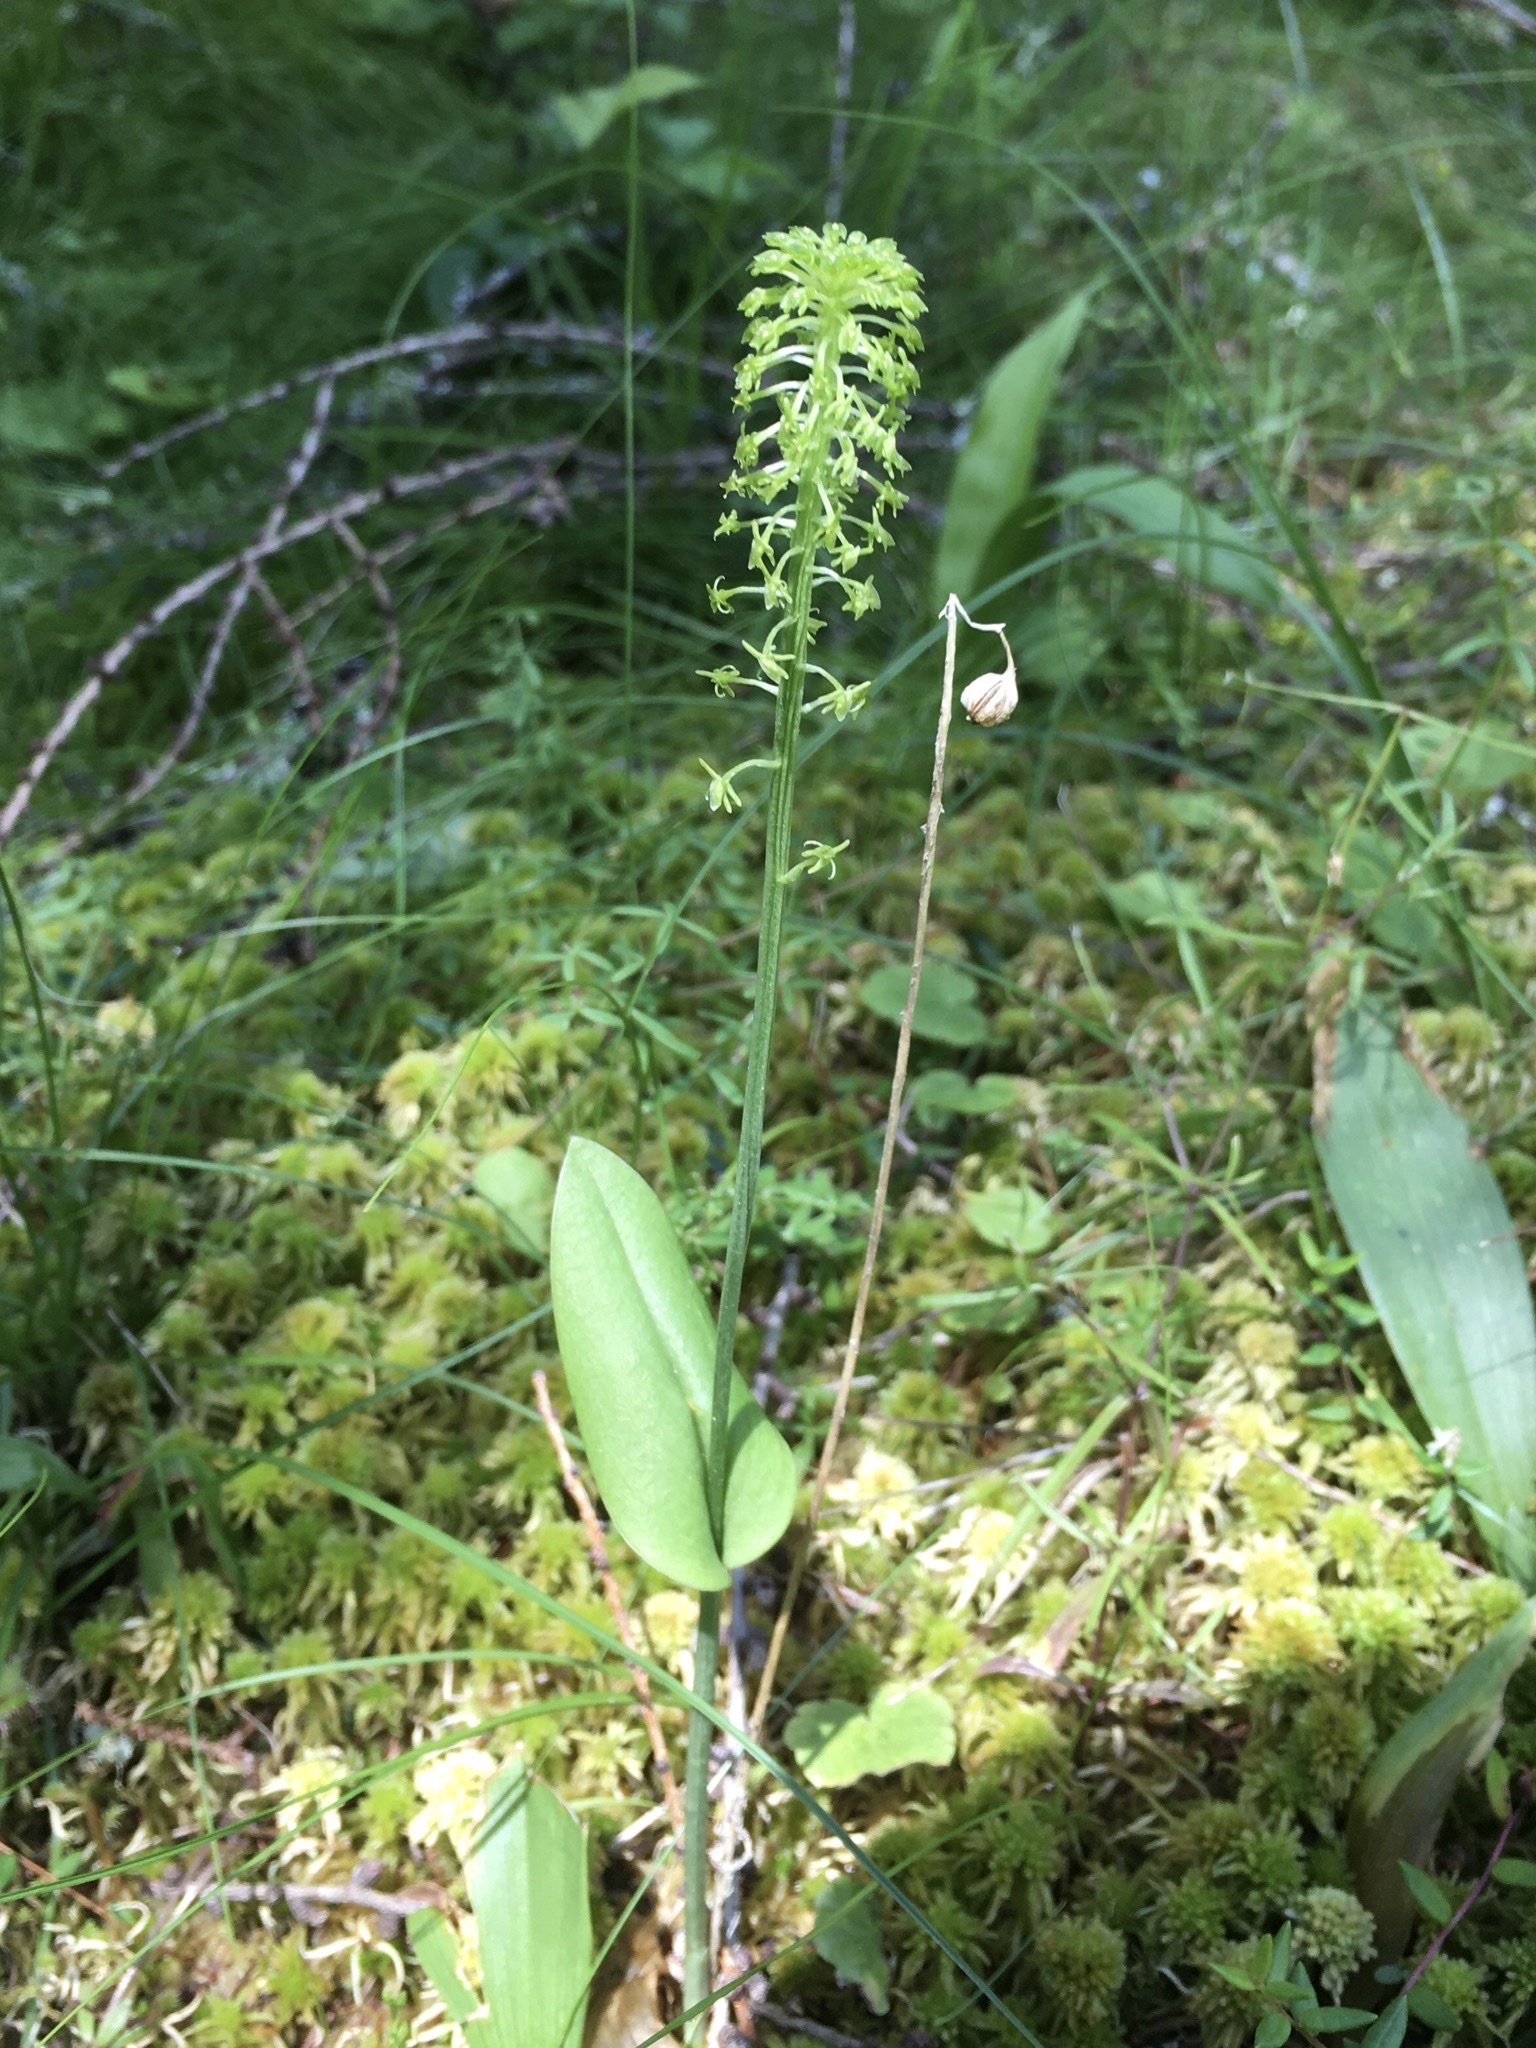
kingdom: Plantae
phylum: Tracheophyta
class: Liliopsida
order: Asparagales
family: Orchidaceae
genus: Malaxis
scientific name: Malaxis unifolia
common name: Green adder's-mouth
